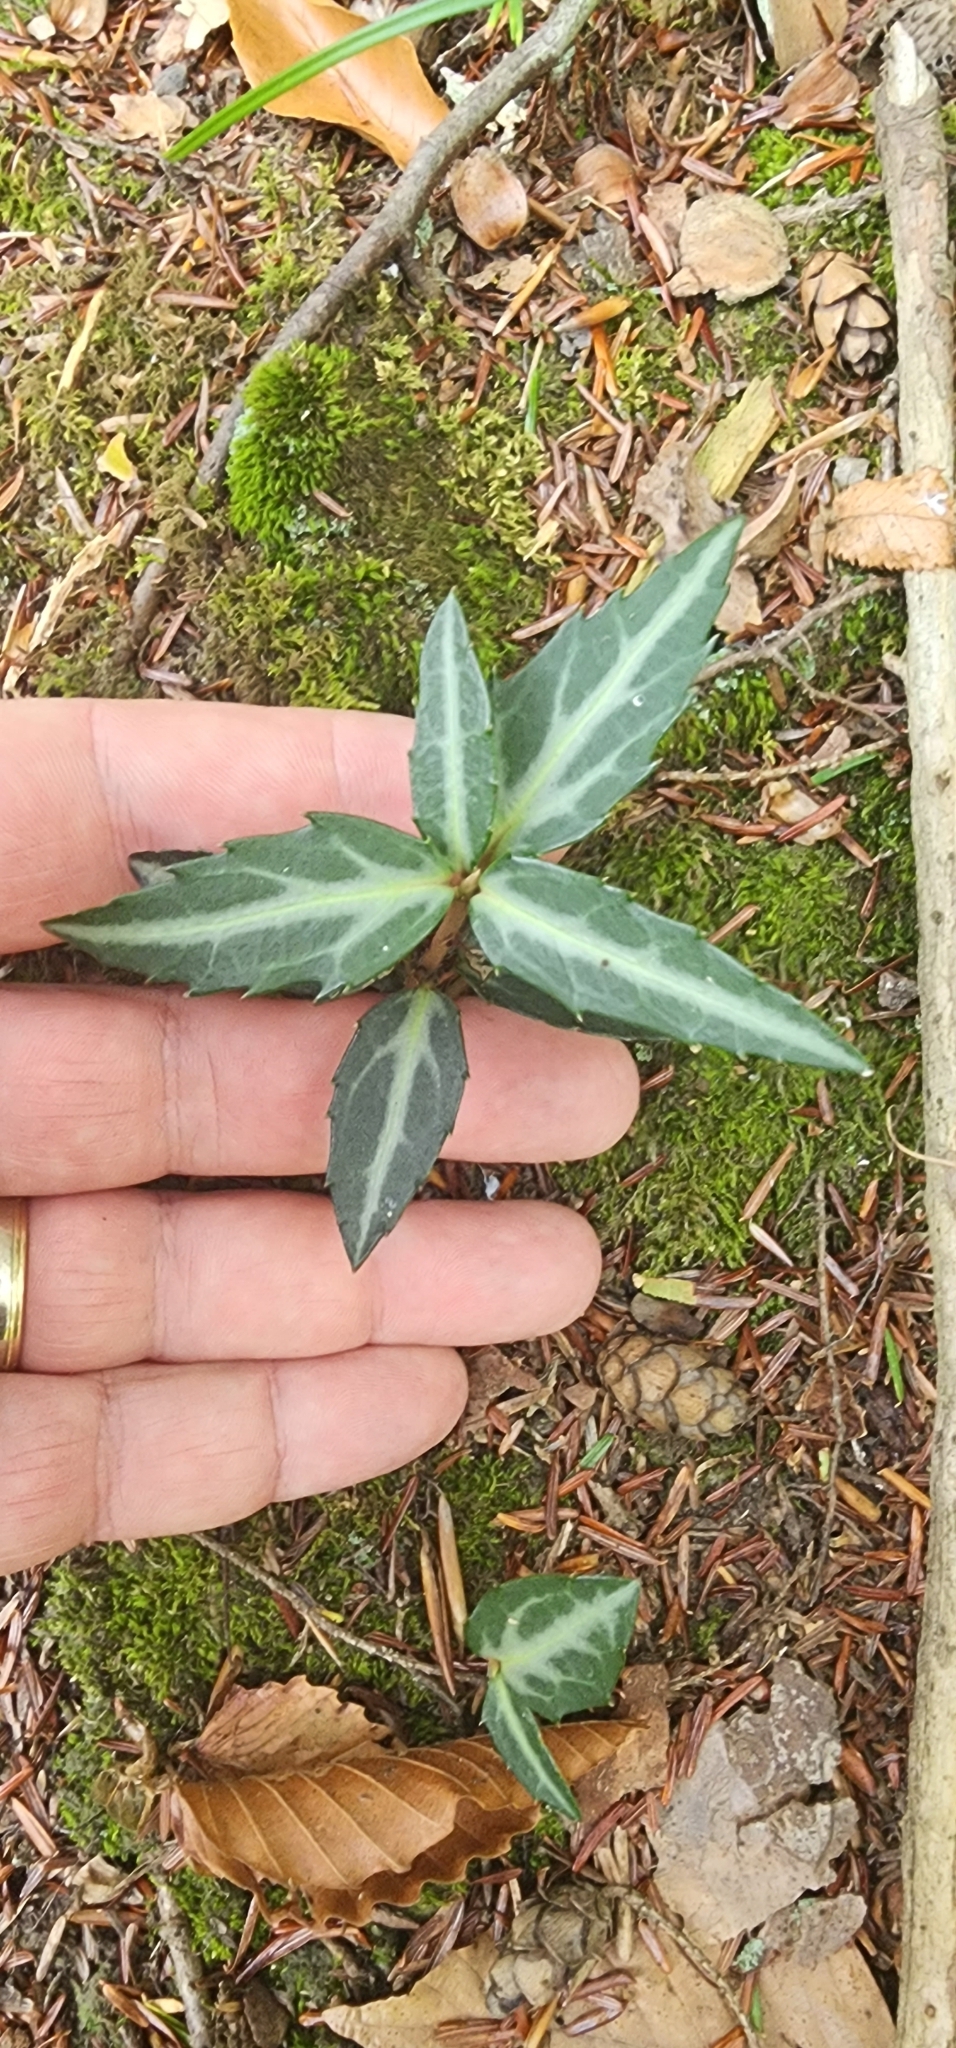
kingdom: Plantae
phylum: Tracheophyta
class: Magnoliopsida
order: Ericales
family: Ericaceae
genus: Chimaphila
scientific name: Chimaphila maculata
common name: Spotted pipsissewa
